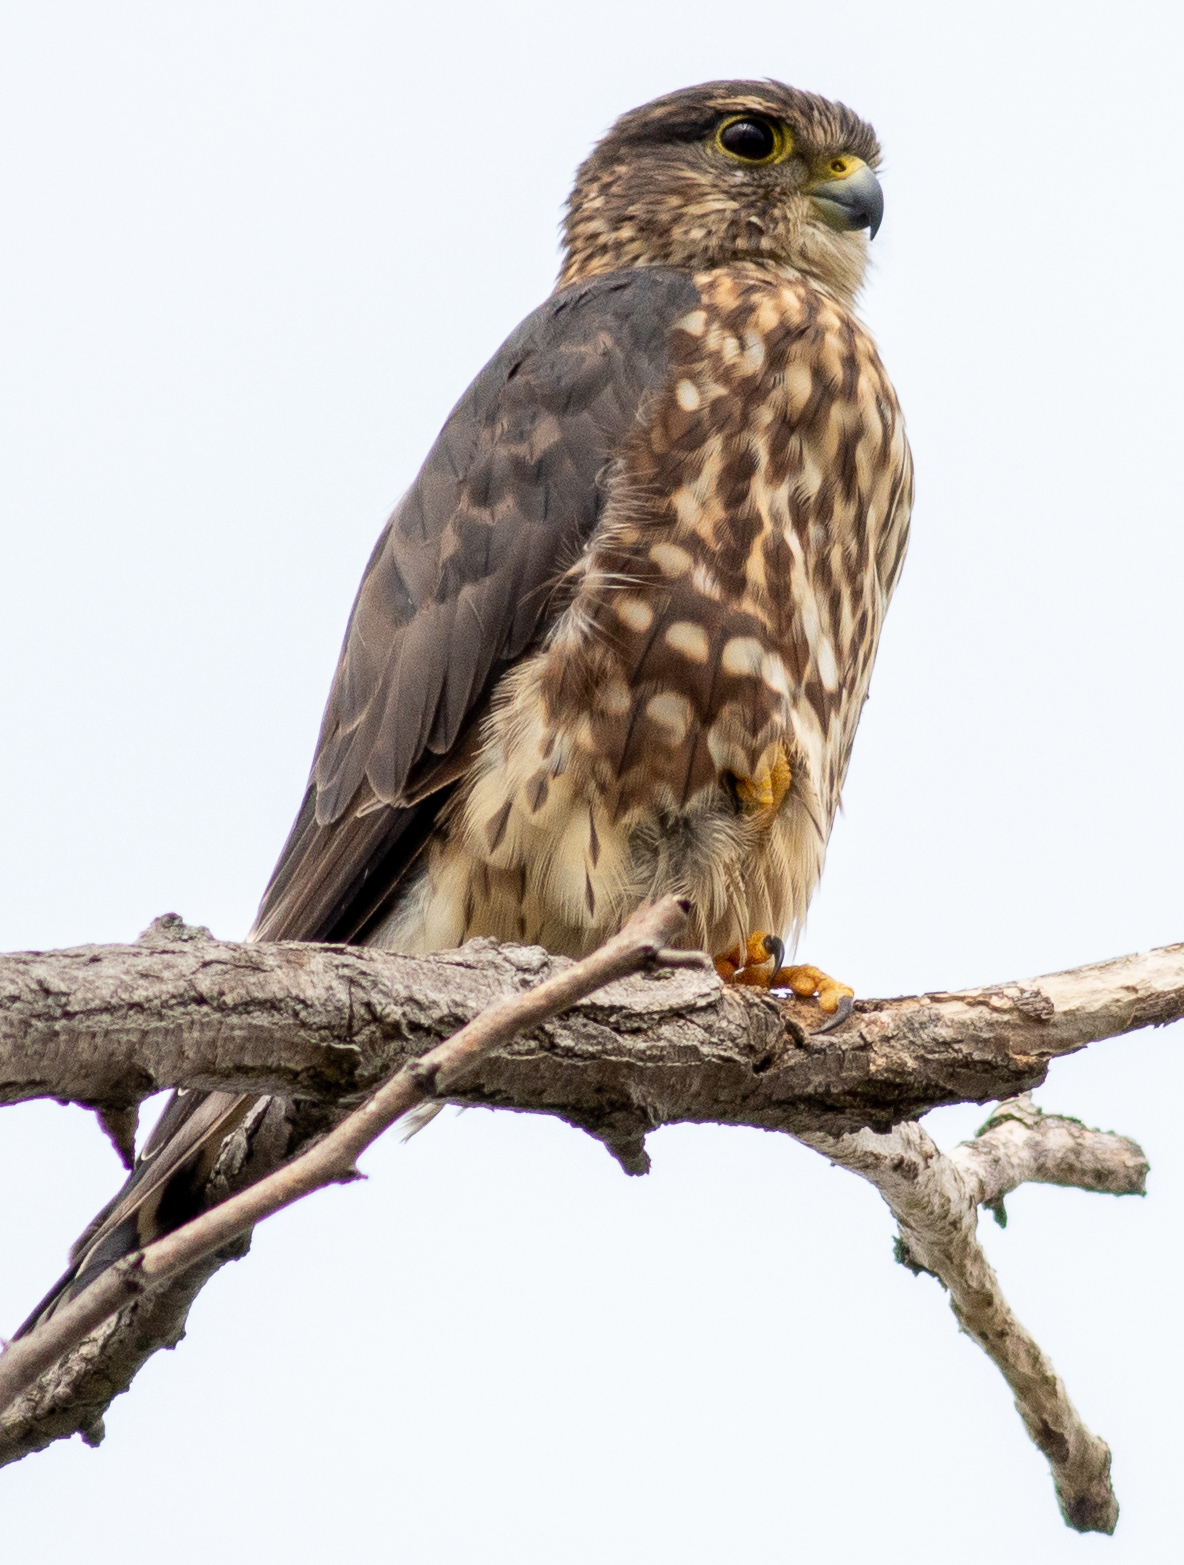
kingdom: Animalia
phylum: Chordata
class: Aves
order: Falconiformes
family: Falconidae
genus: Falco
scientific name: Falco columbarius
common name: Merlin
